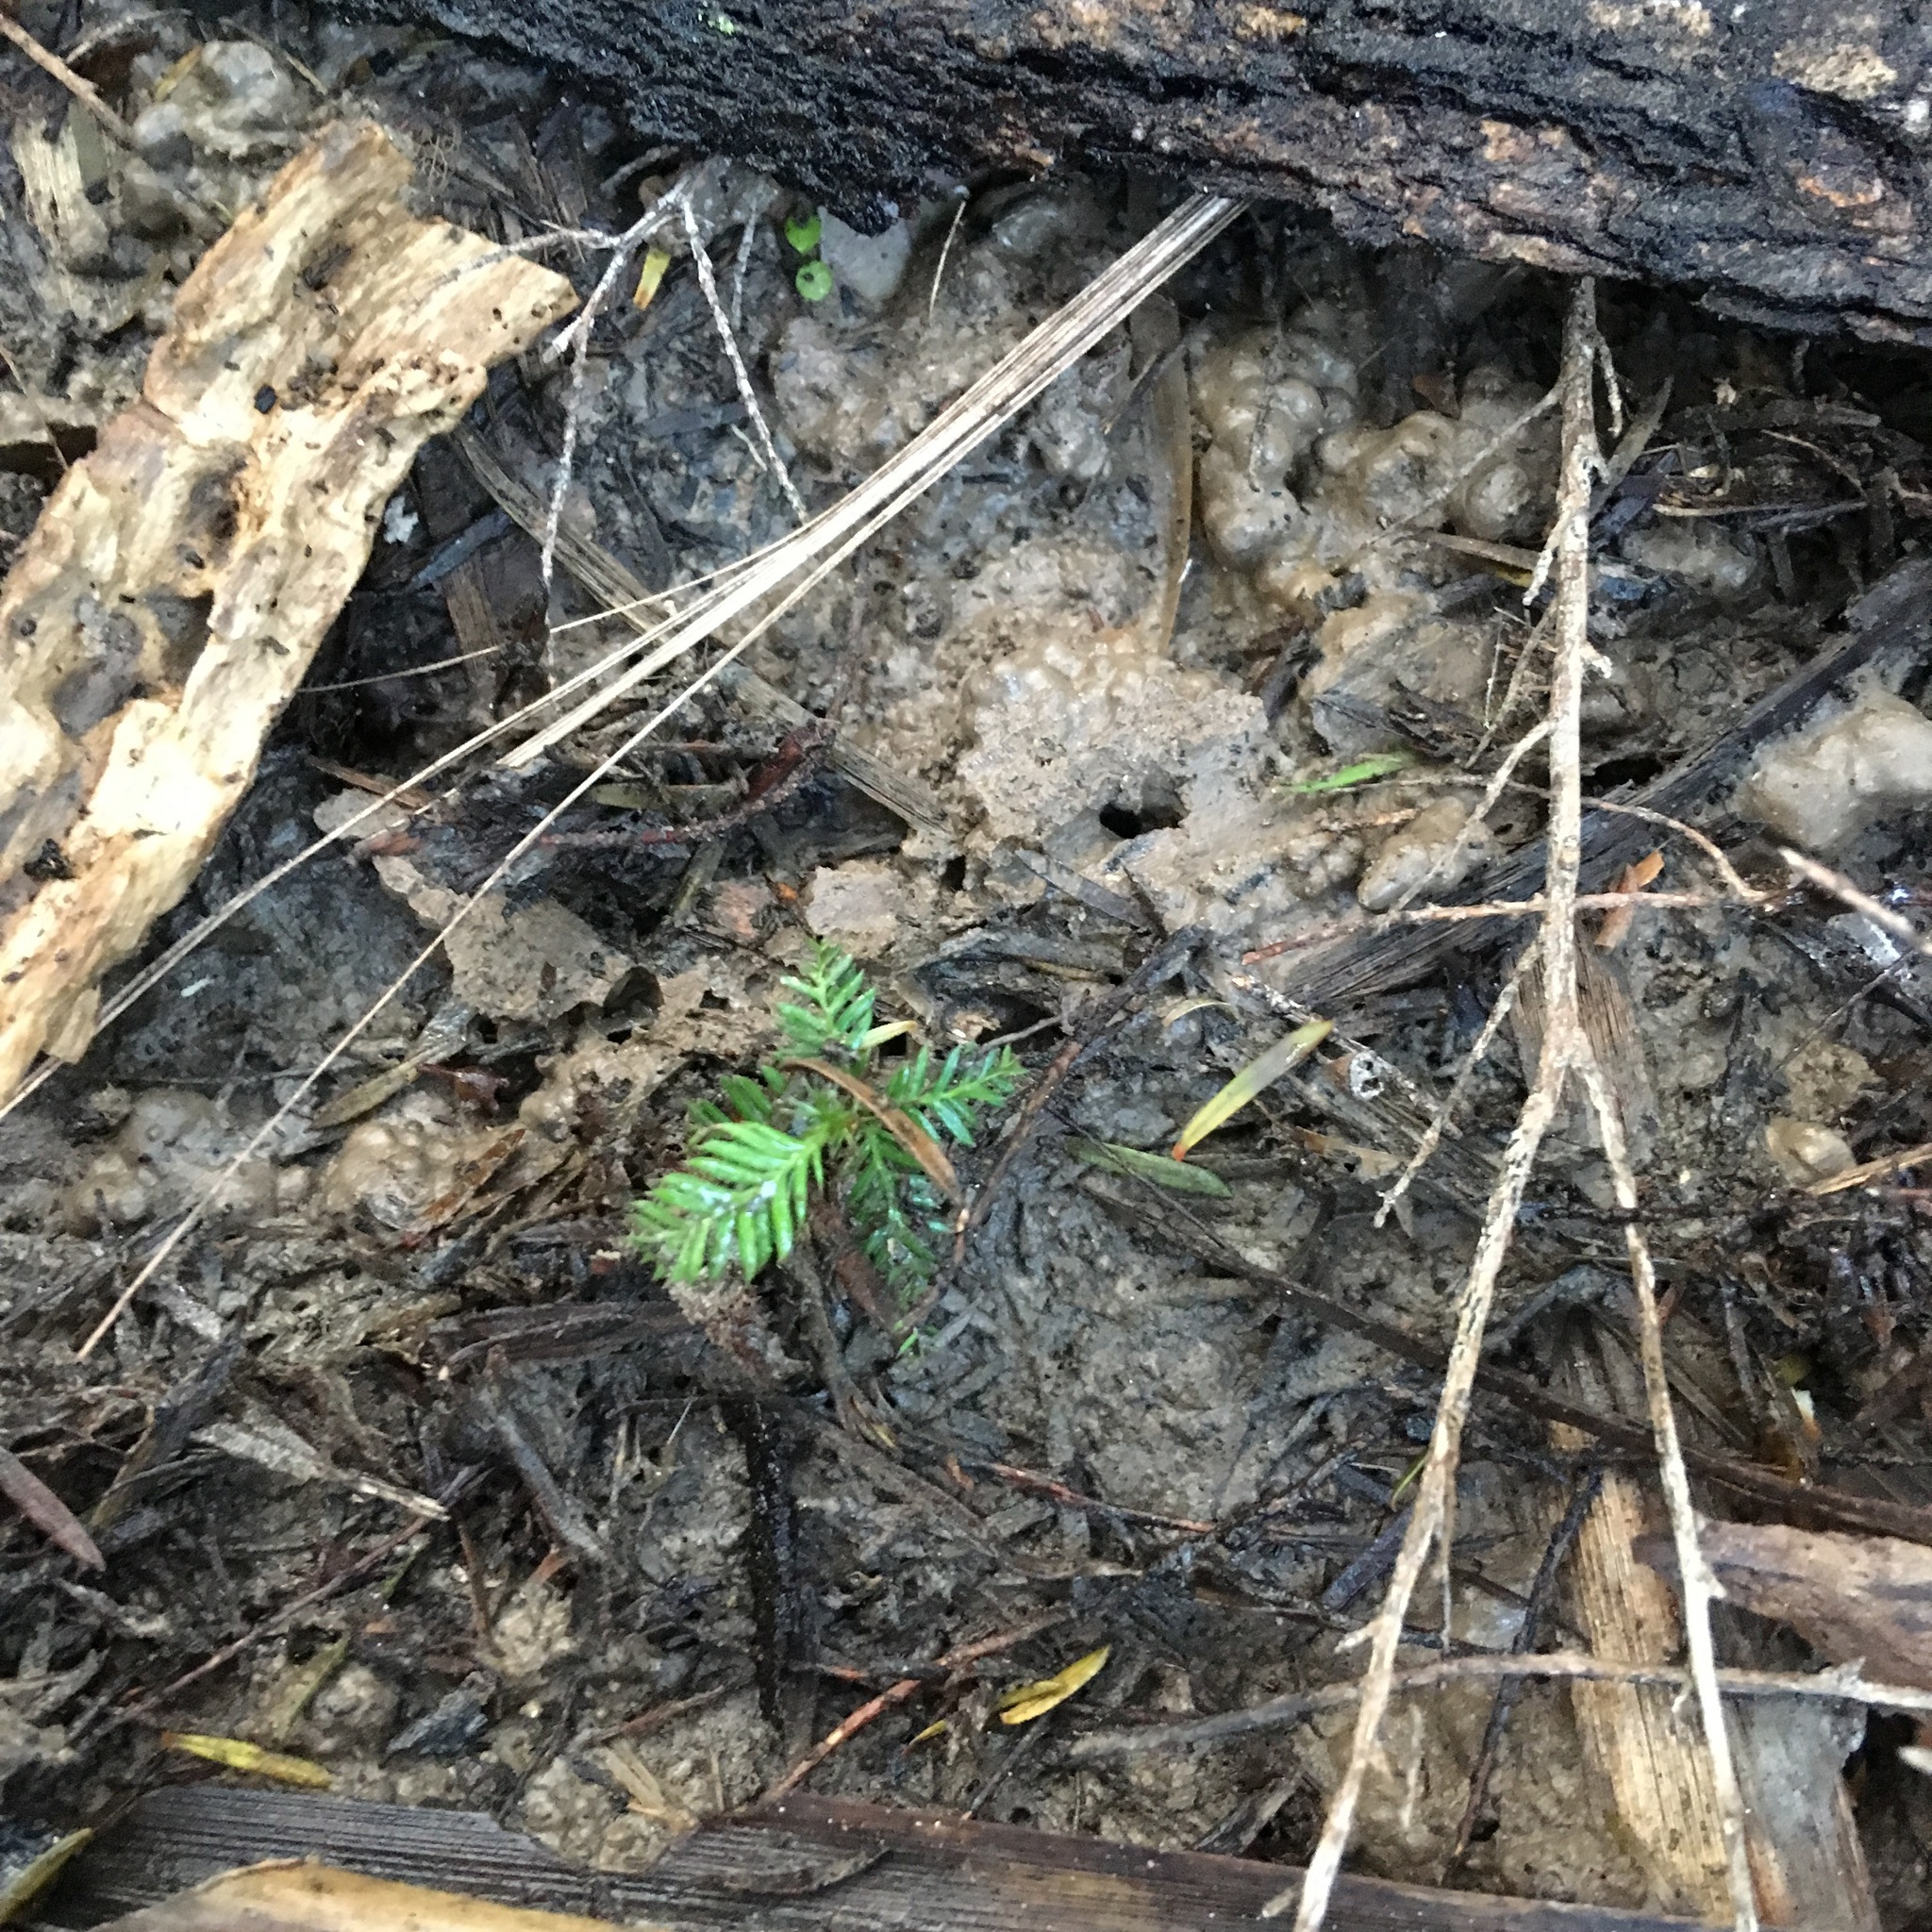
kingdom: Plantae
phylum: Tracheophyta
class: Pinopsida
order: Pinales
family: Podocarpaceae
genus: Dacrycarpus
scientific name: Dacrycarpus dacrydioides
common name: White pine
